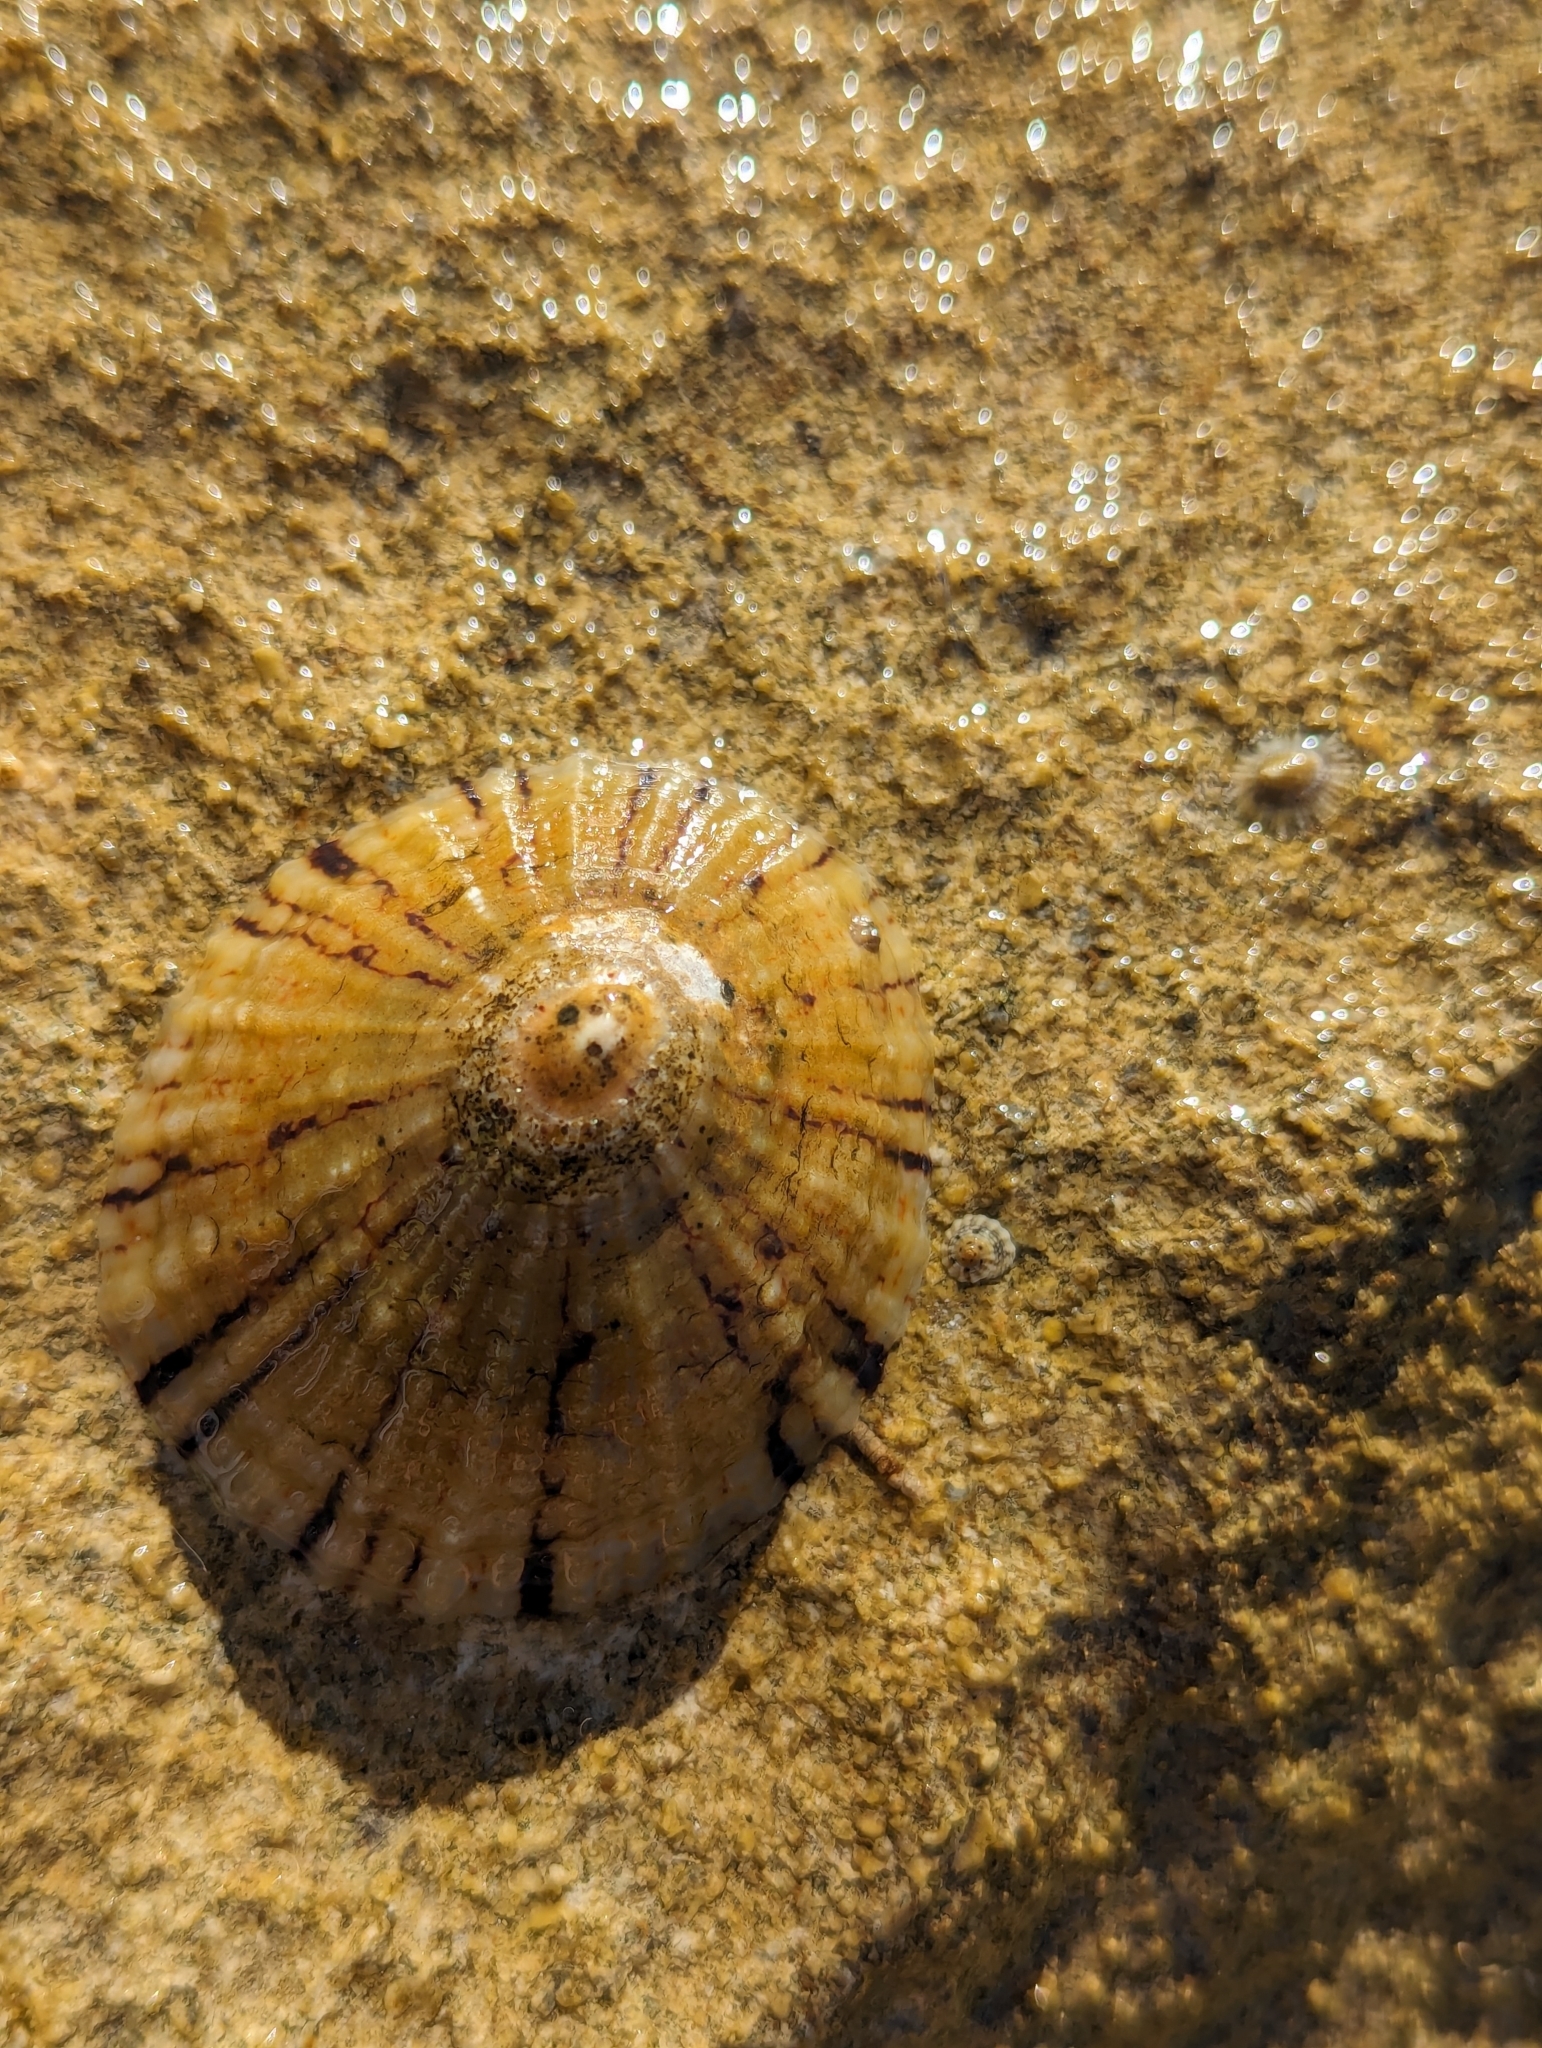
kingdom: Animalia
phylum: Mollusca
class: Gastropoda
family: Nacellidae
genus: Cellana
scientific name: Cellana tramoserica
